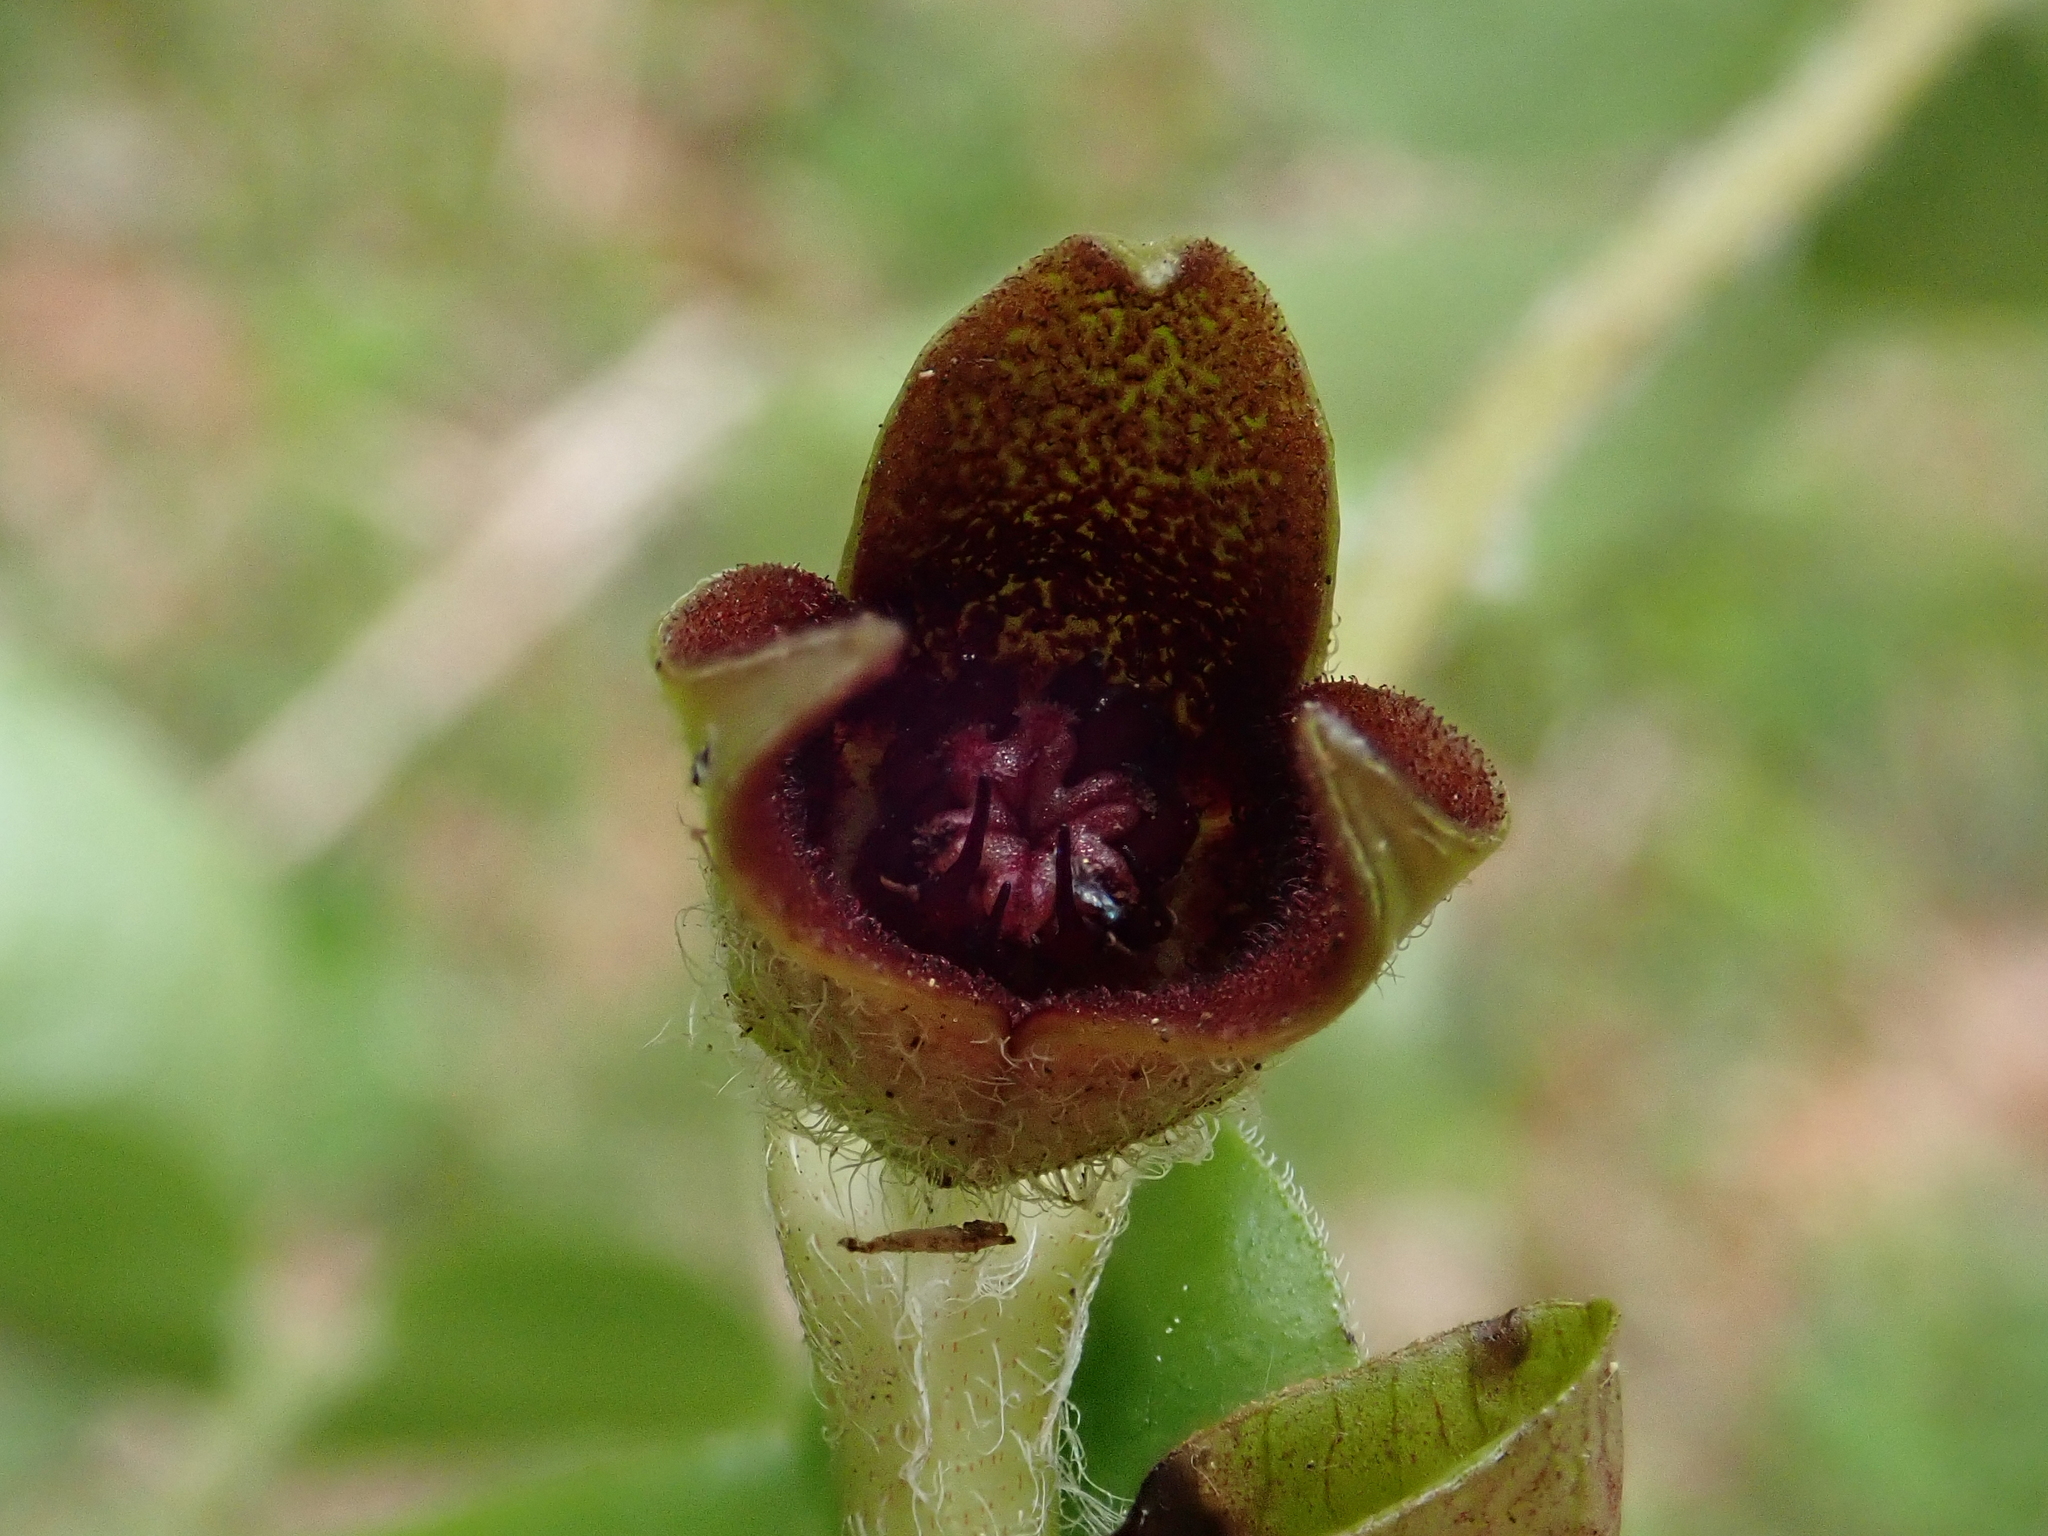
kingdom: Plantae
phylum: Tracheophyta
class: Magnoliopsida
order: Piperales
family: Aristolochiaceae
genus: Asarum
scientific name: Asarum europaeum
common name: Asarabacca
